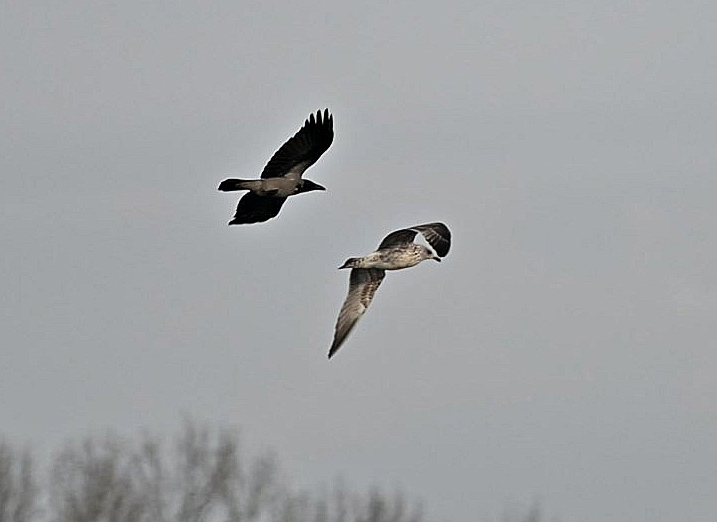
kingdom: Animalia
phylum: Chordata
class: Aves
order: Passeriformes
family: Corvidae
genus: Corvus
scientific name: Corvus cornix
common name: Hooded crow
